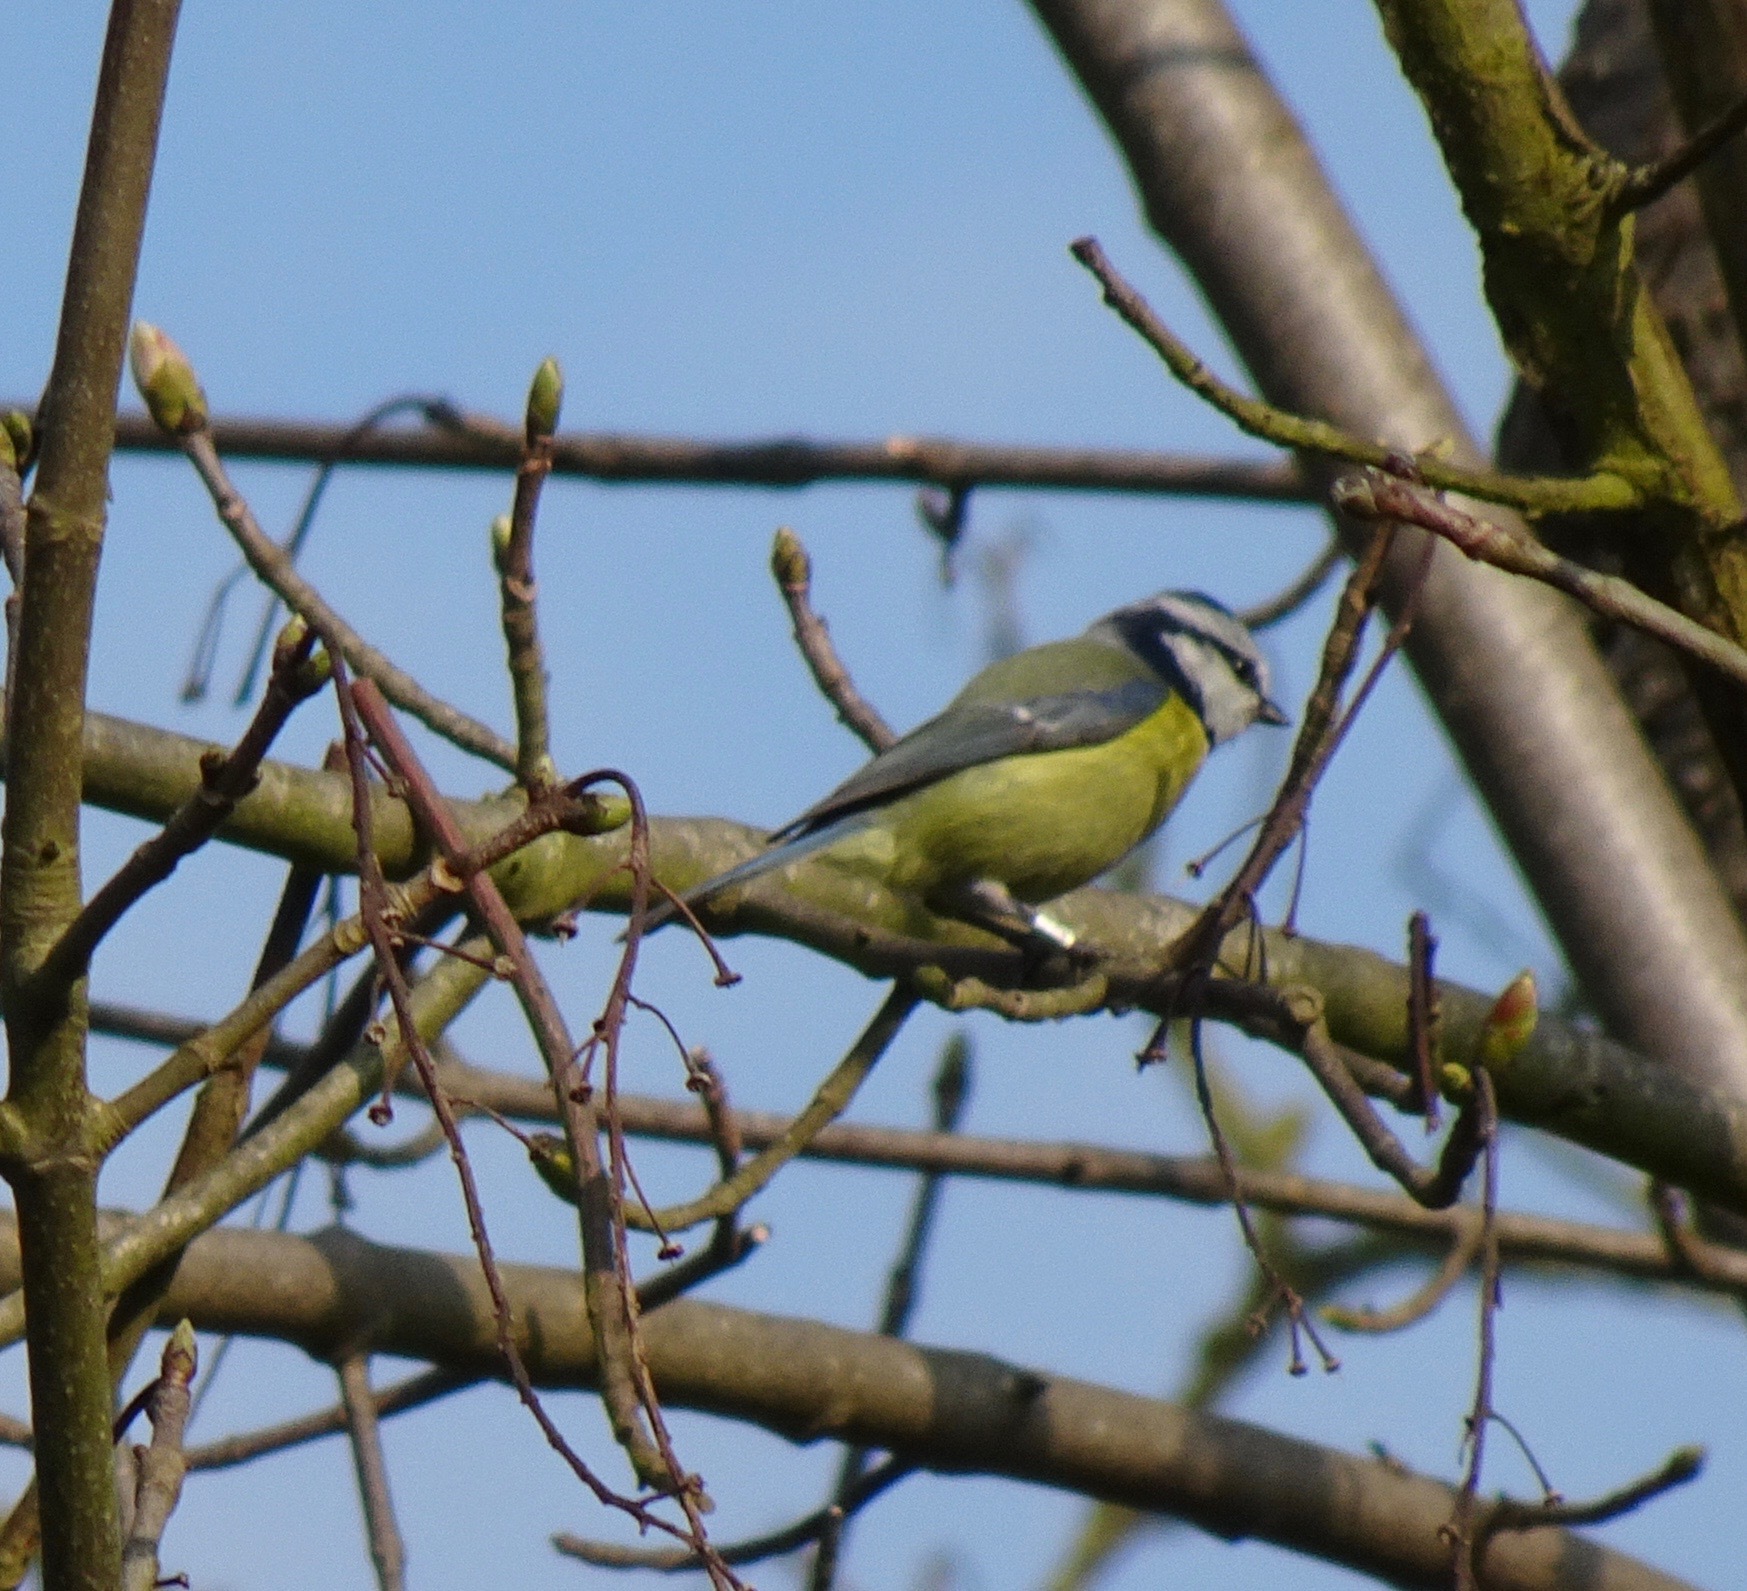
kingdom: Animalia
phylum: Chordata
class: Aves
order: Passeriformes
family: Paridae
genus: Cyanistes
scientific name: Cyanistes caeruleus
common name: Eurasian blue tit
